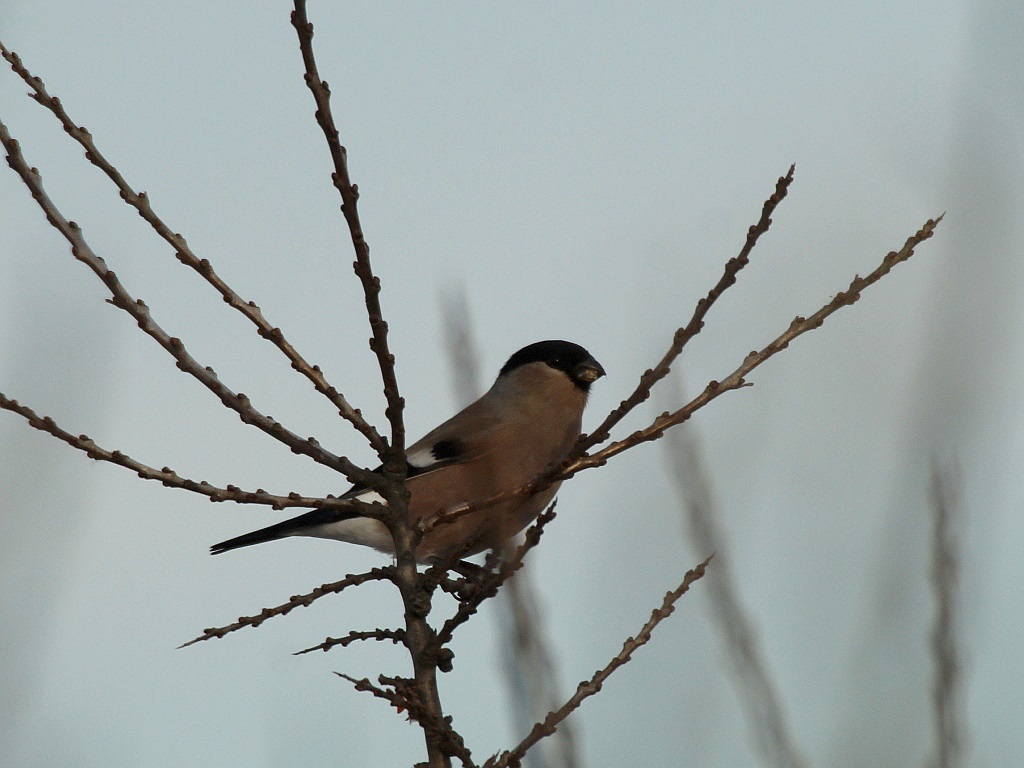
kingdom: Animalia
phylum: Chordata
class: Aves
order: Passeriformes
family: Fringillidae
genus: Pyrrhula
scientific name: Pyrrhula pyrrhula
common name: Eurasian bullfinch
